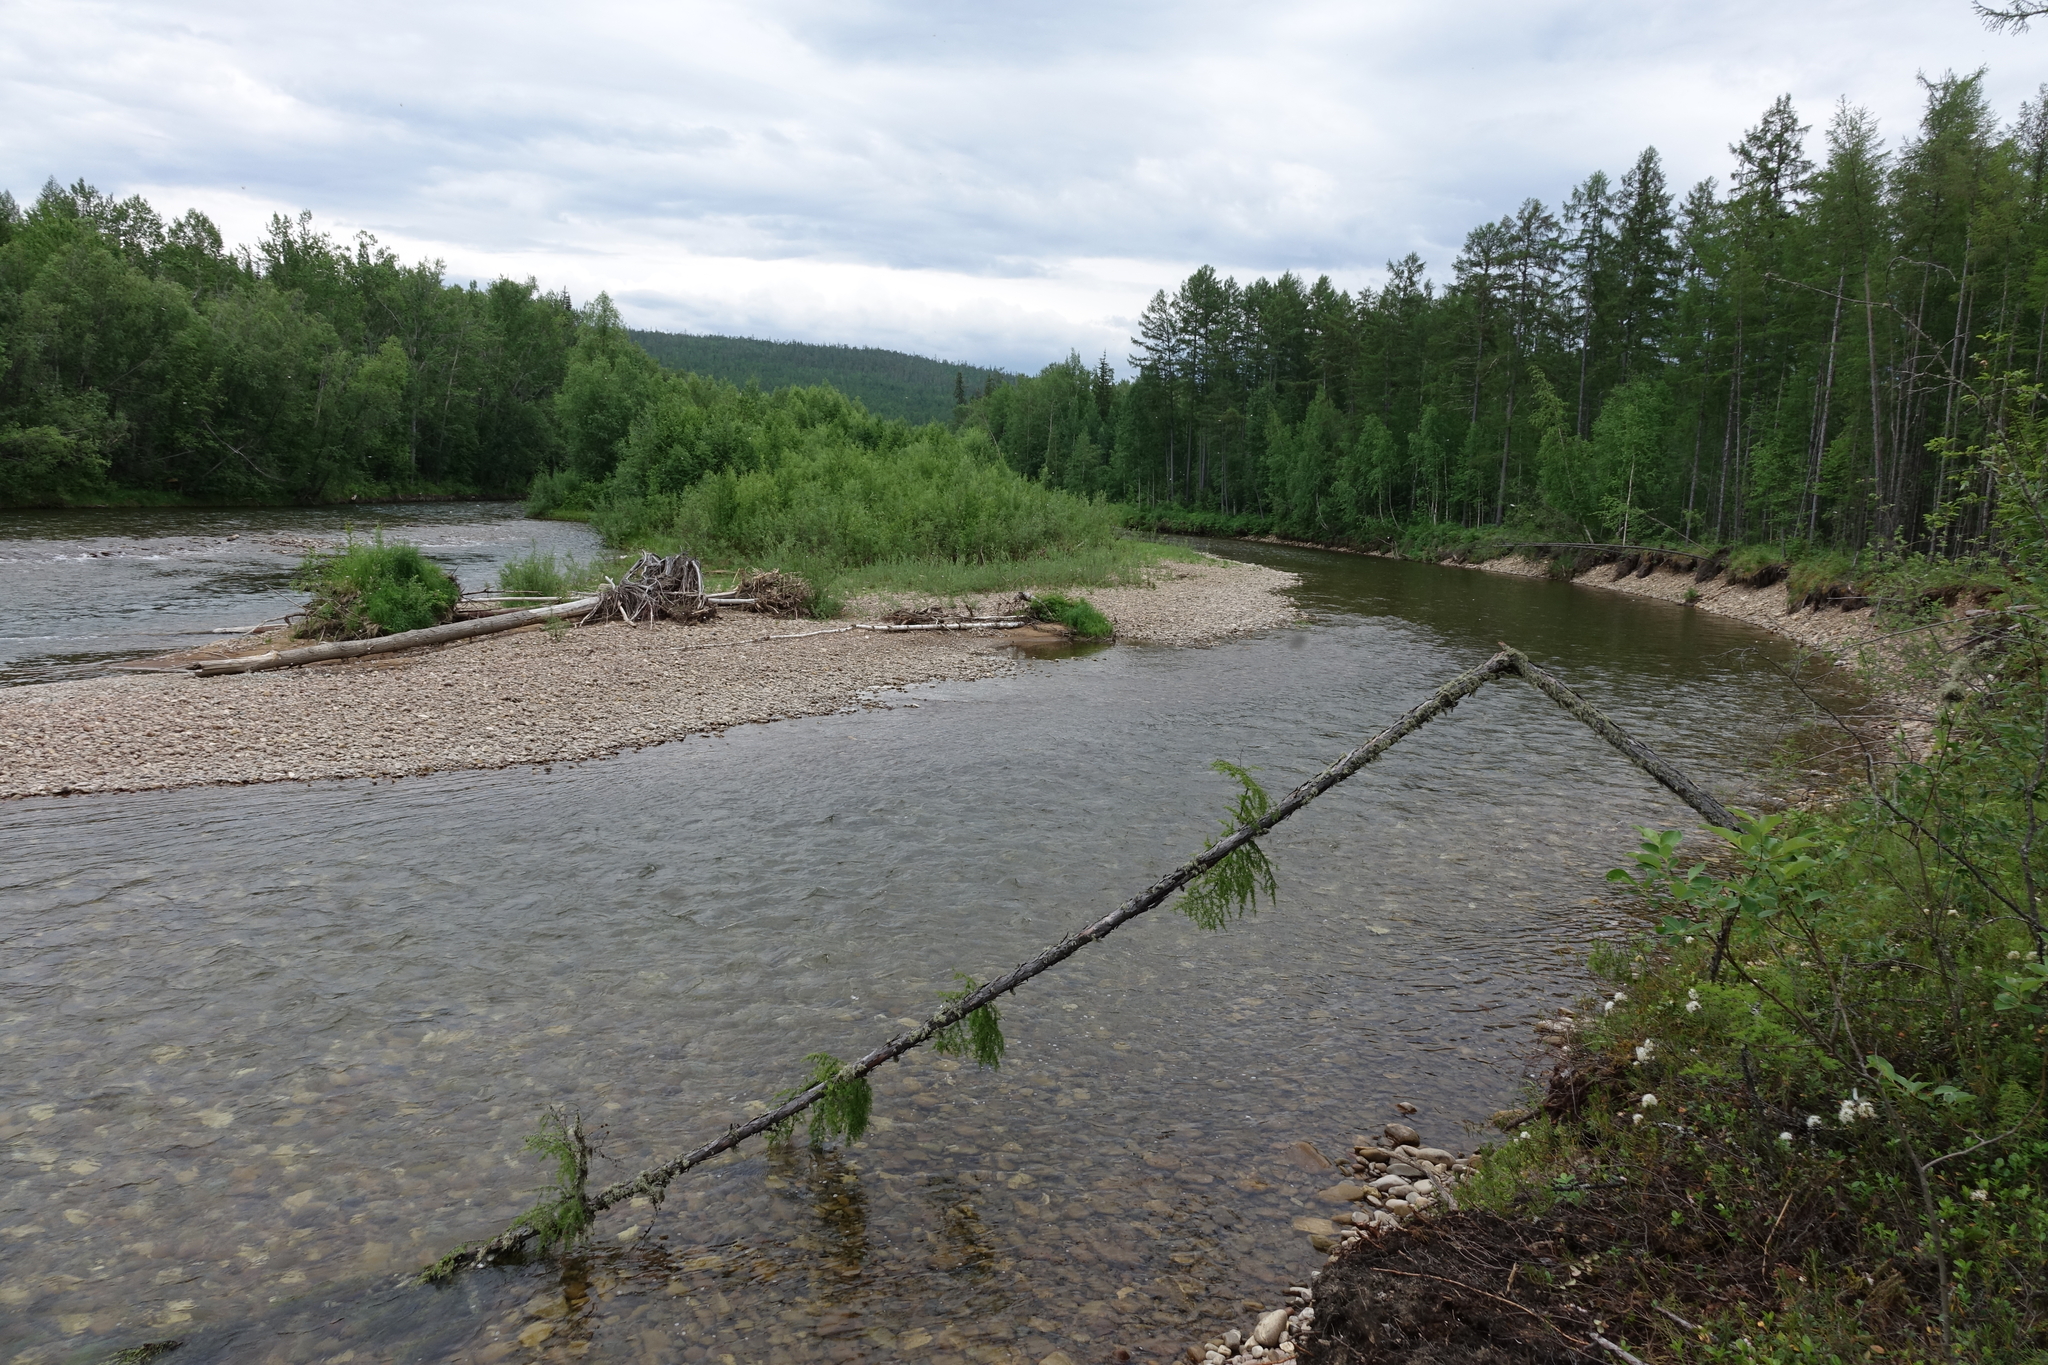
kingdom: Plantae
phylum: Tracheophyta
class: Pinopsida
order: Pinales
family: Pinaceae
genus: Larix
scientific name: Larix gmelinii
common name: Dahurian larch
